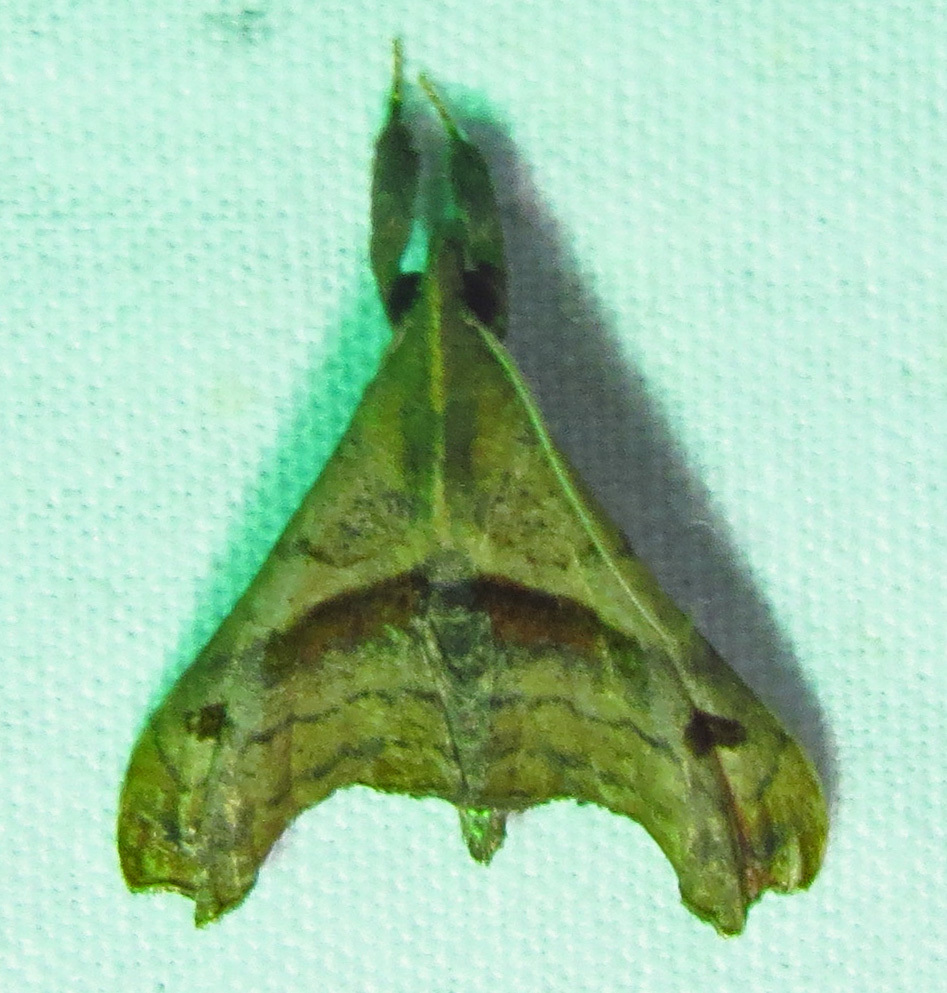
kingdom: Animalia
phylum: Arthropoda
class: Insecta
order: Lepidoptera
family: Erebidae
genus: Palthis
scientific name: Palthis angulalis
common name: Dark-spotted palthis moth
